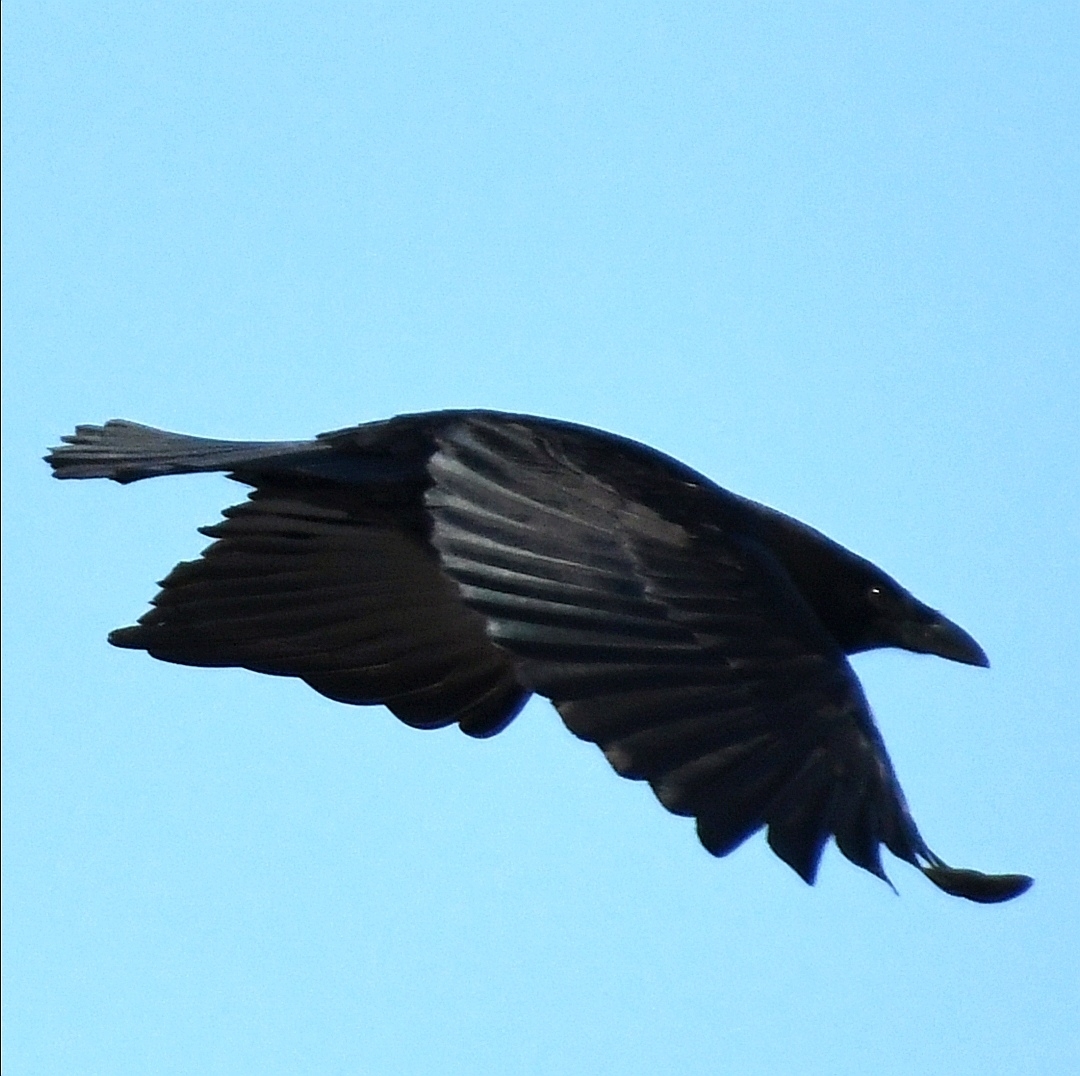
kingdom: Animalia
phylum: Chordata
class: Aves
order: Passeriformes
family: Corvidae
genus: Corvus
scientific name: Corvus corax
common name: Common raven
